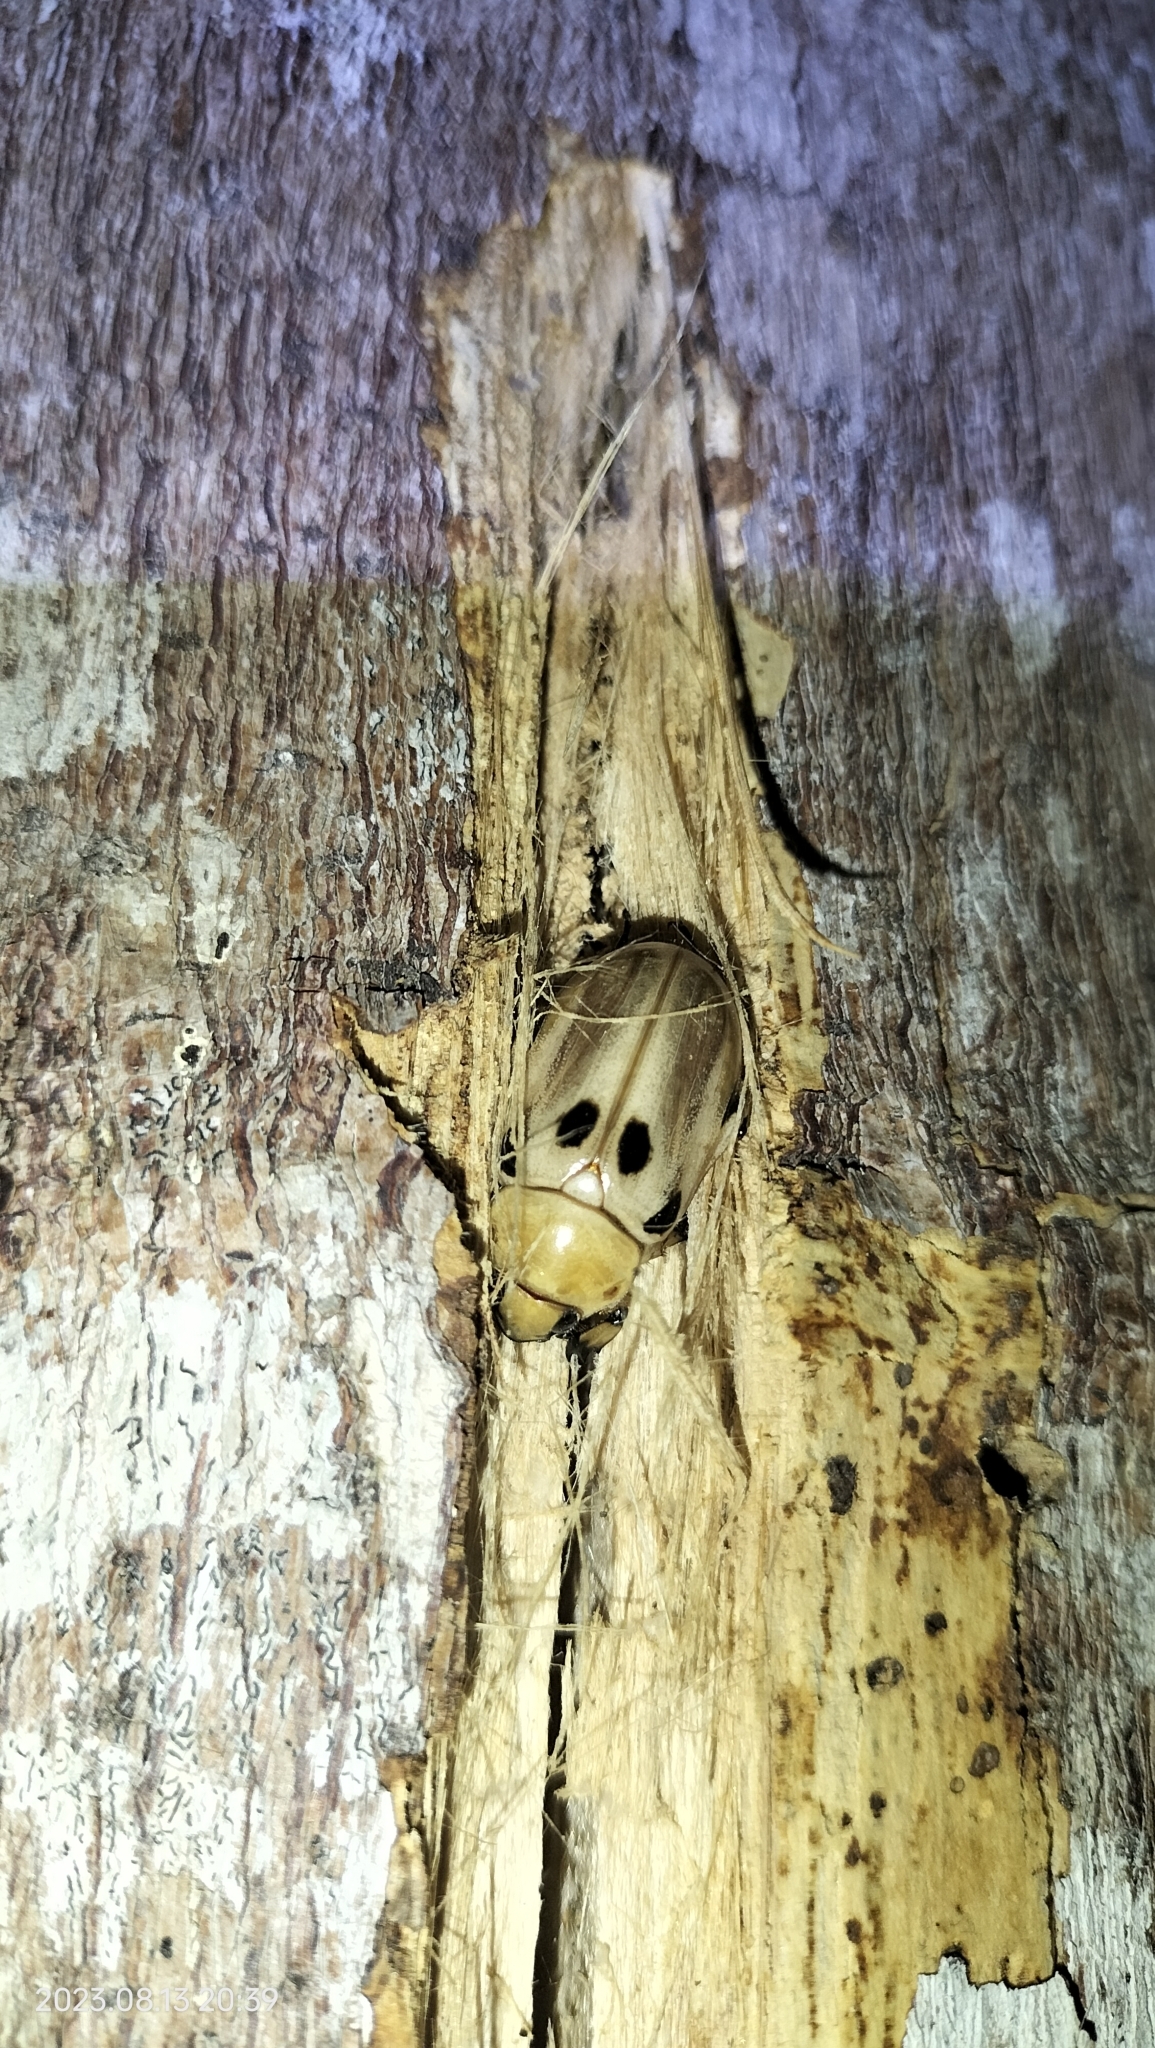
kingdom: Animalia
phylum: Arthropoda
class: Insecta
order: Coleoptera
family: Scarabaeidae
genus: Ancognatha
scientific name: Ancognatha vulgaris
